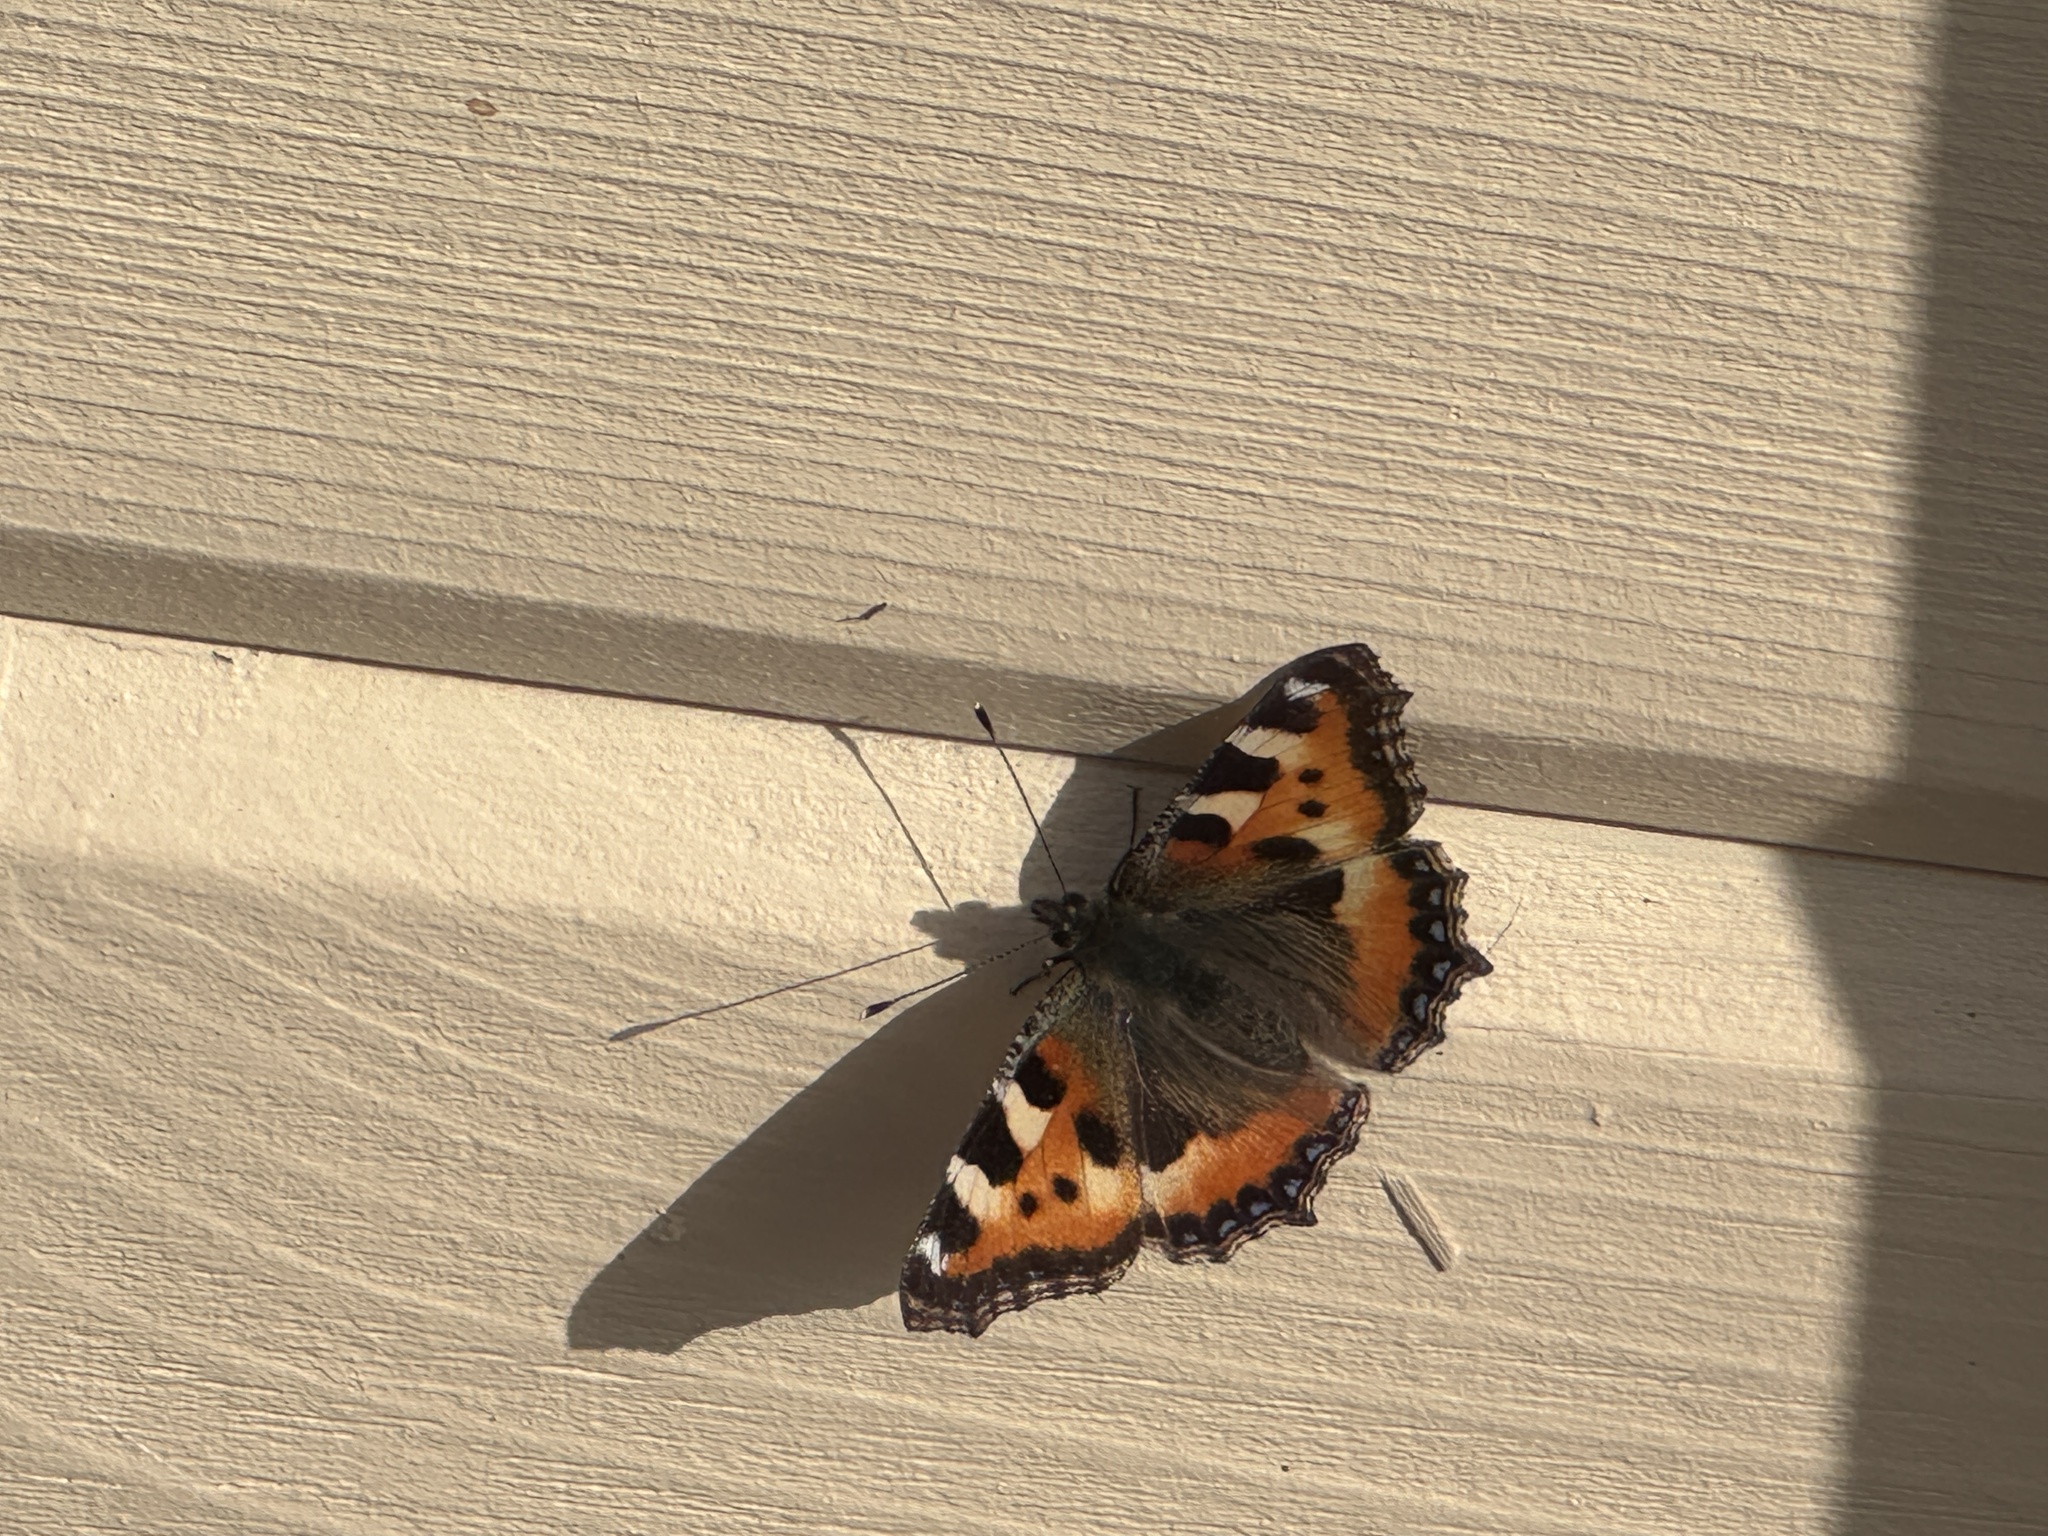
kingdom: Animalia
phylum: Arthropoda
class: Insecta
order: Lepidoptera
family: Nymphalidae
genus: Aglais
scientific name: Aglais urticae
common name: Small tortoiseshell
